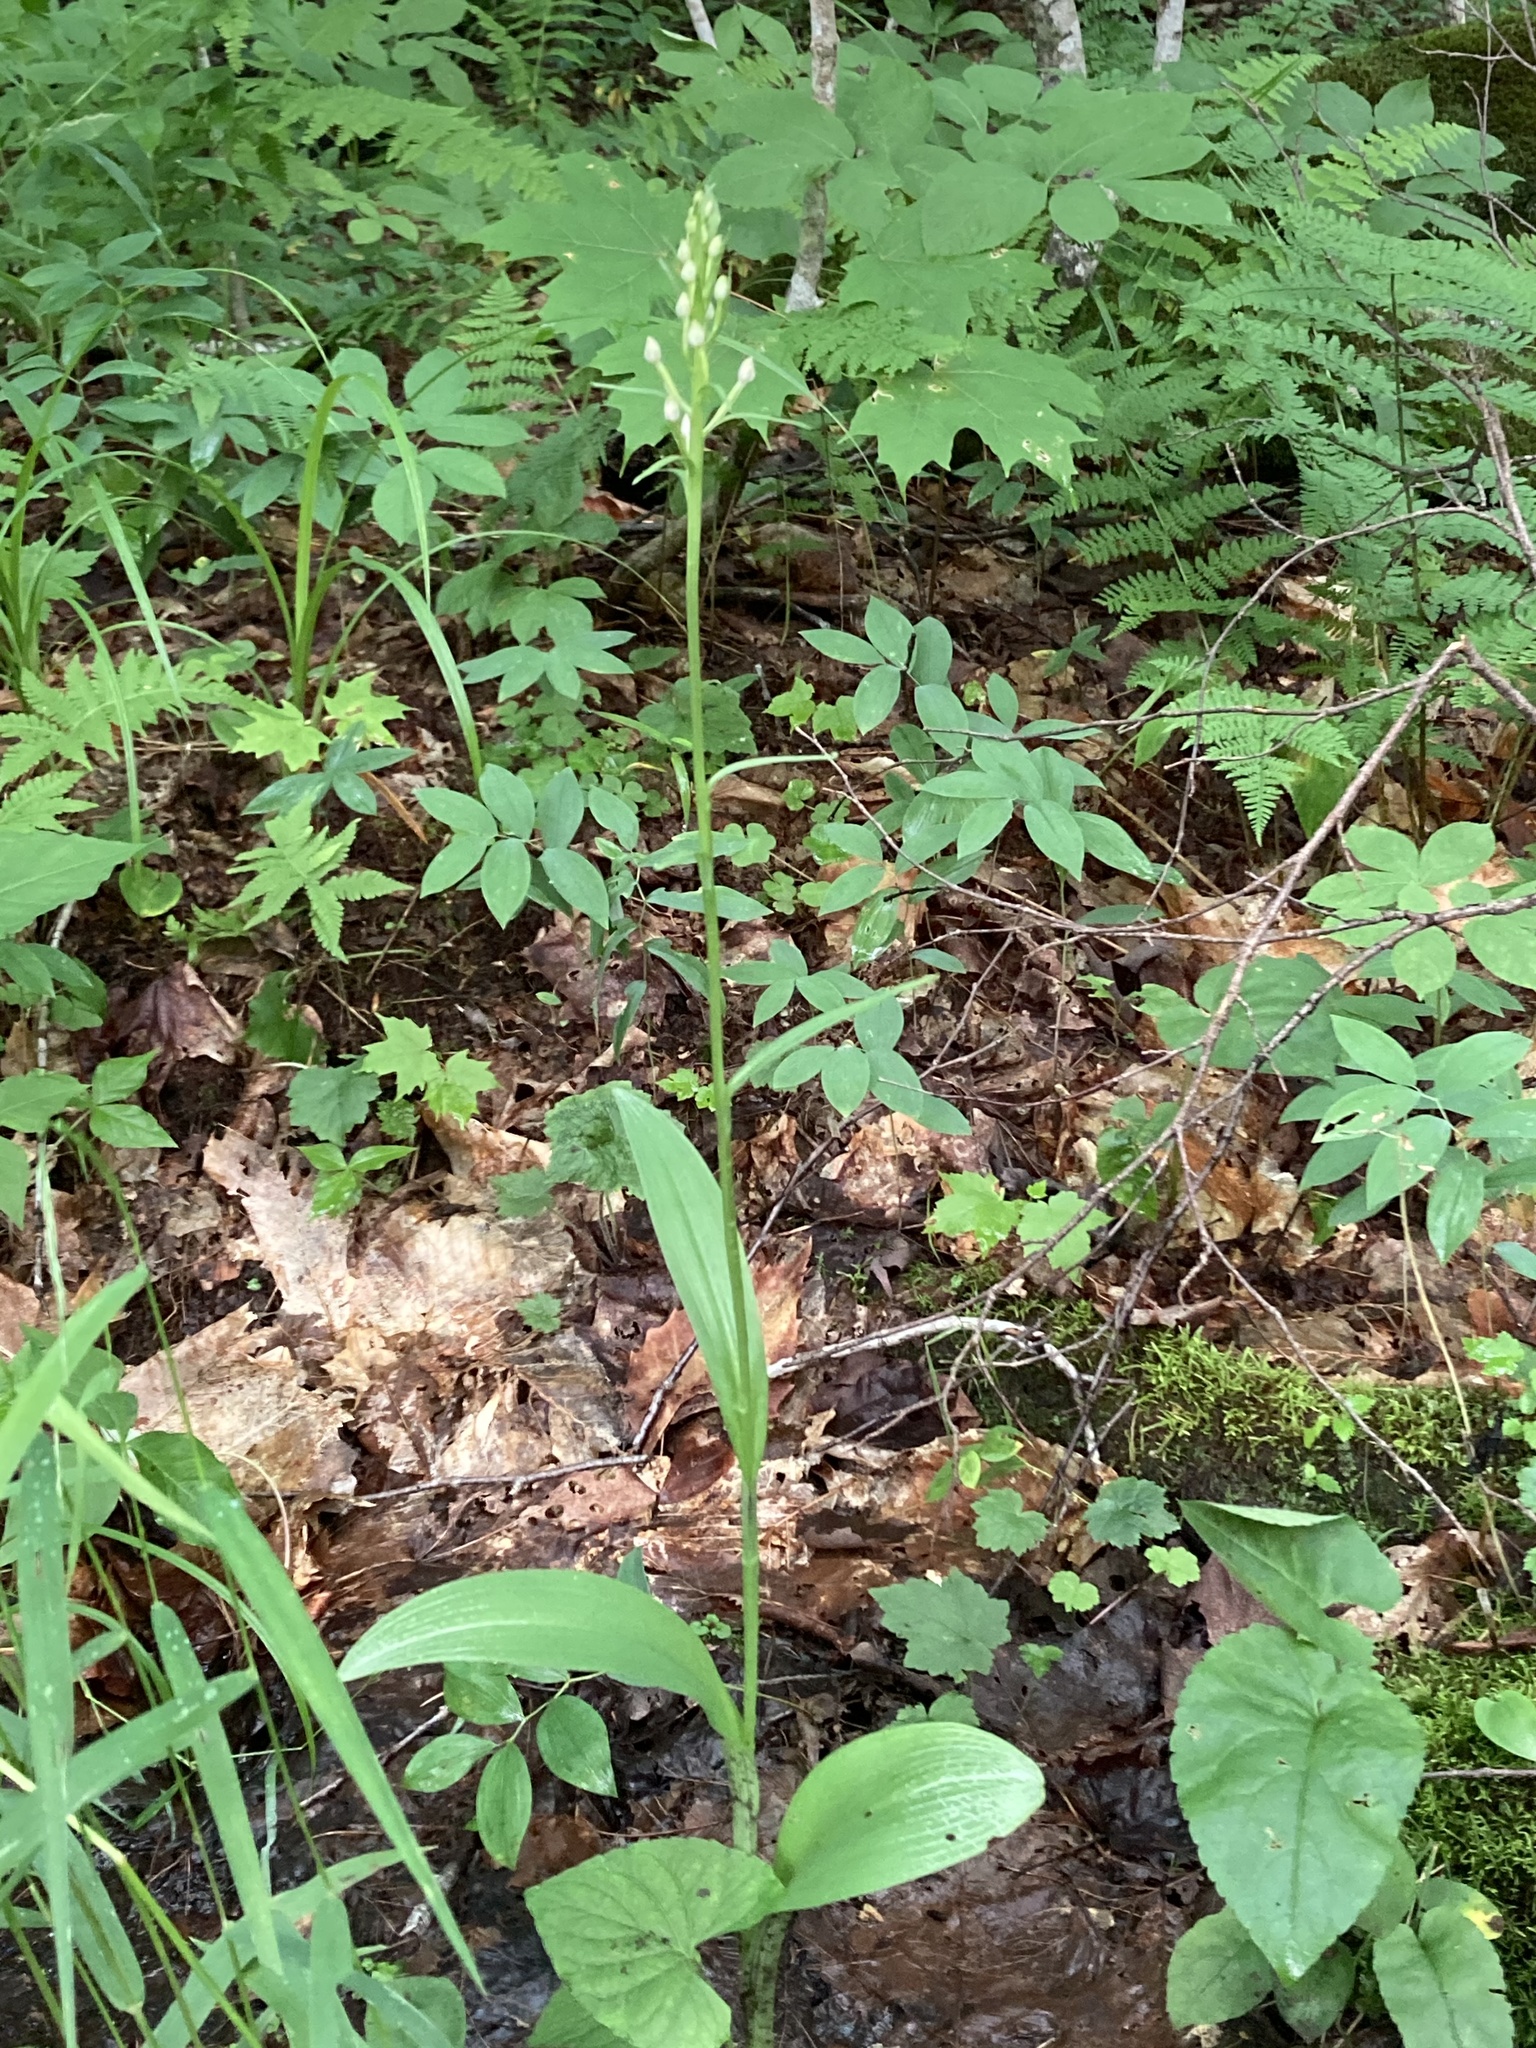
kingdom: Plantae
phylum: Tracheophyta
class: Liliopsida
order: Asparagales
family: Orchidaceae
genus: Platanthera
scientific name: Platanthera psycodes
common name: Lesser purple fringed orchid
